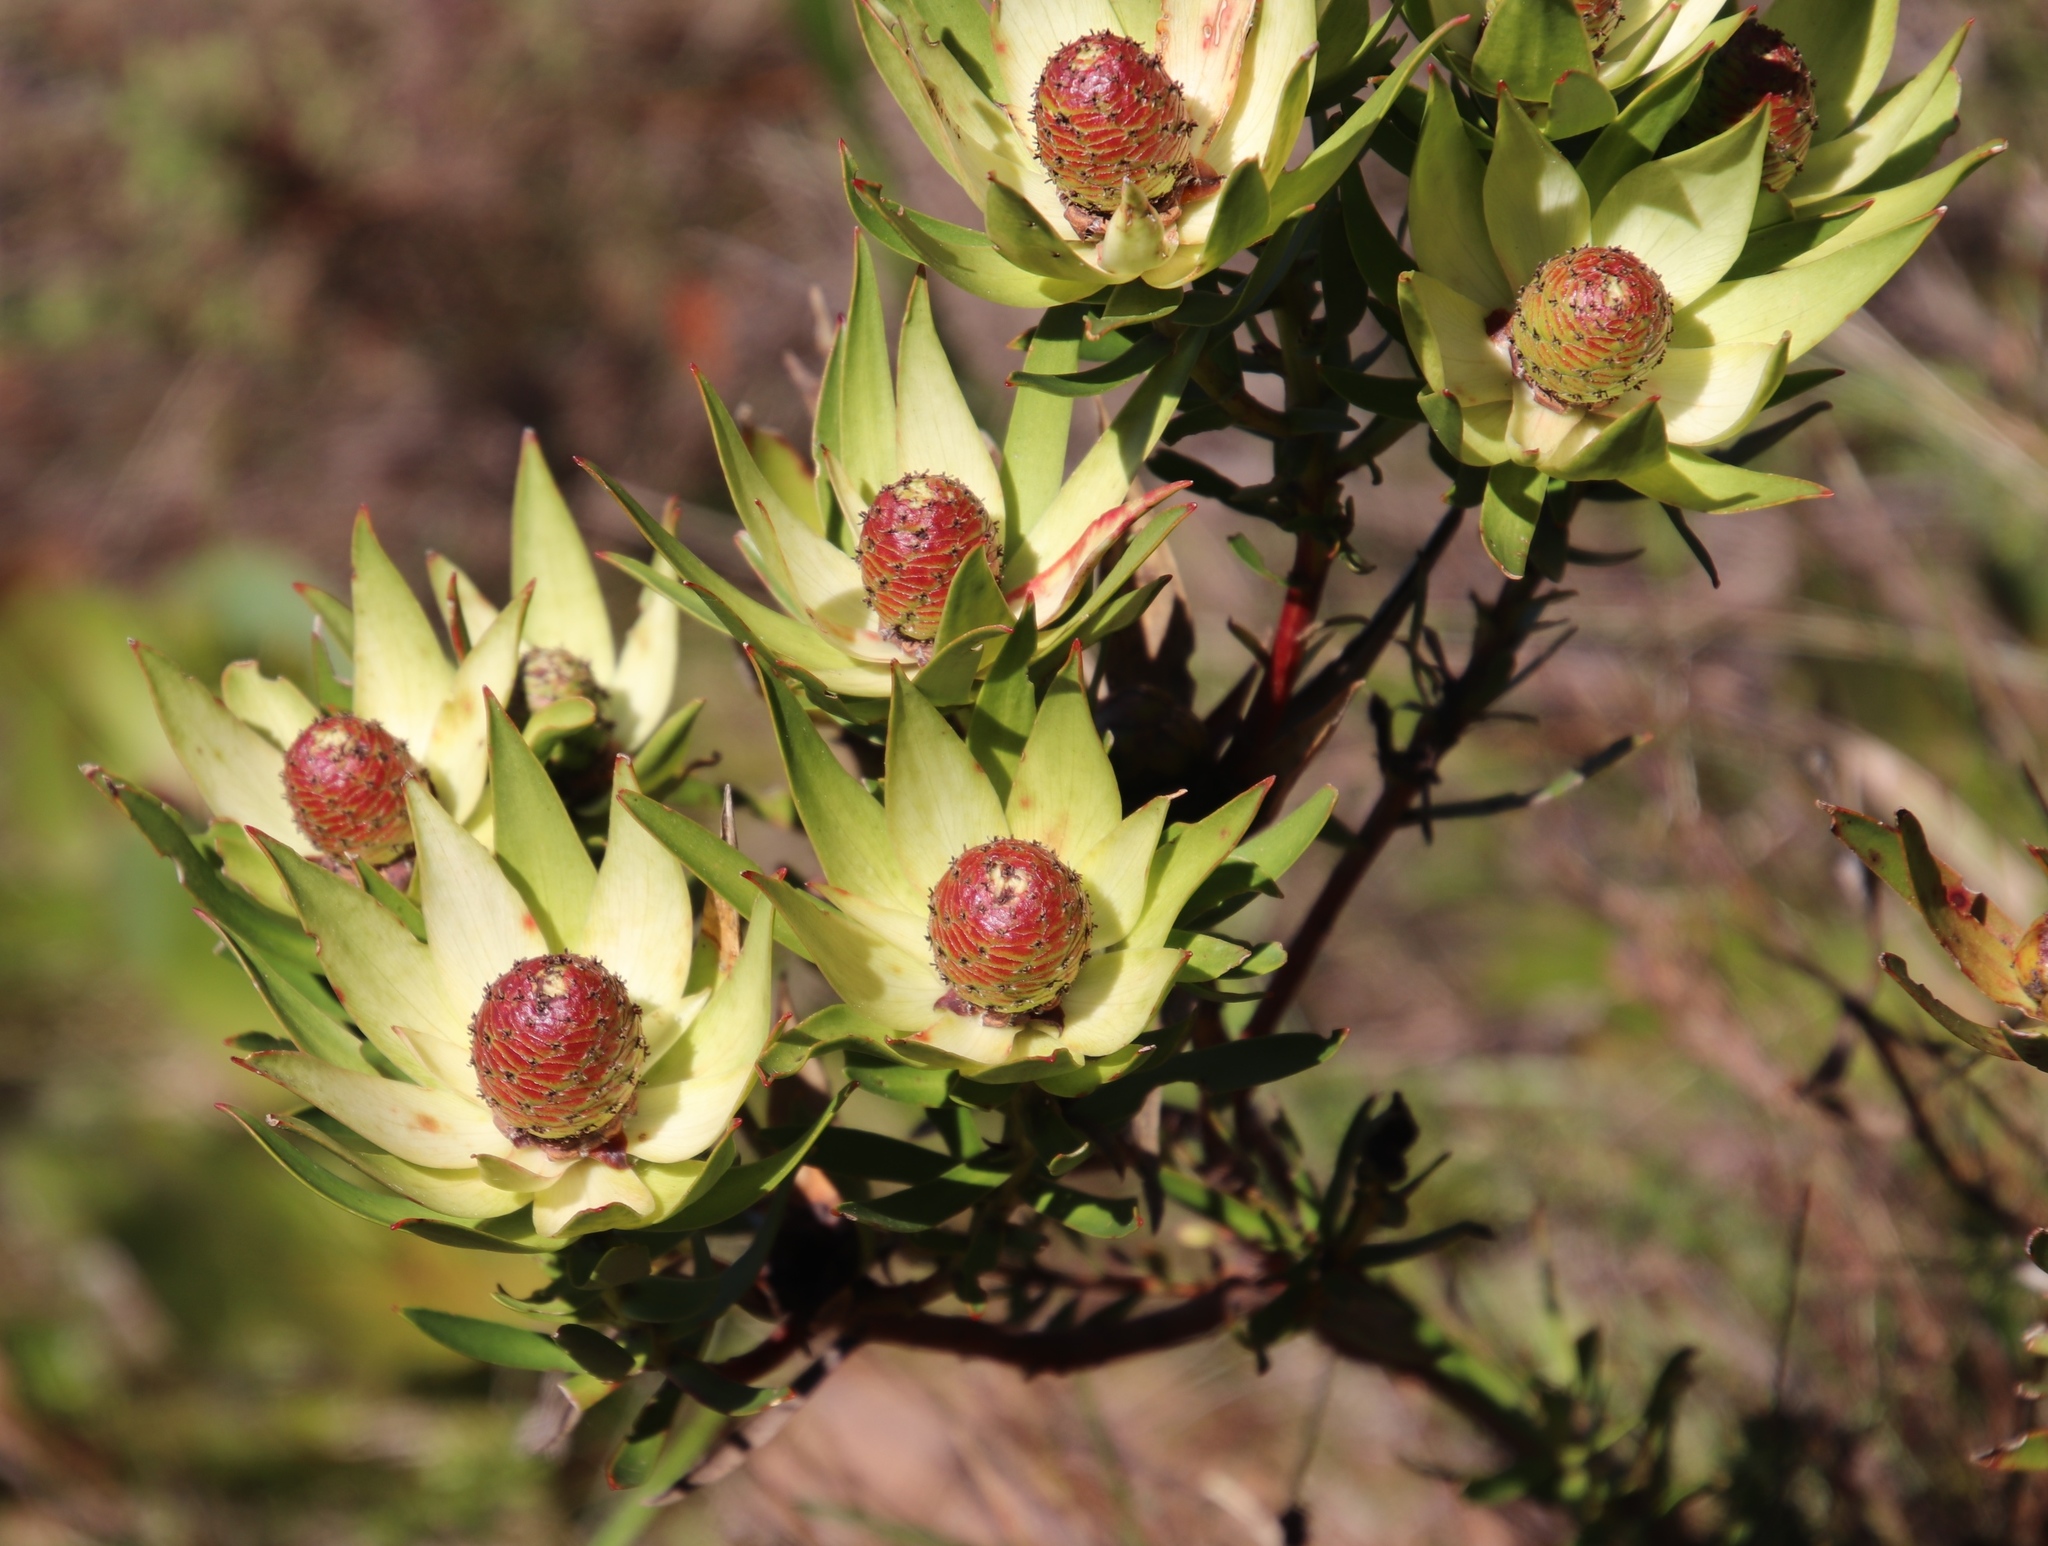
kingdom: Plantae
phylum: Tracheophyta
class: Magnoliopsida
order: Proteales
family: Proteaceae
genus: Leucadendron
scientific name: Leucadendron spissifolium
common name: Spear-leaf conebush
